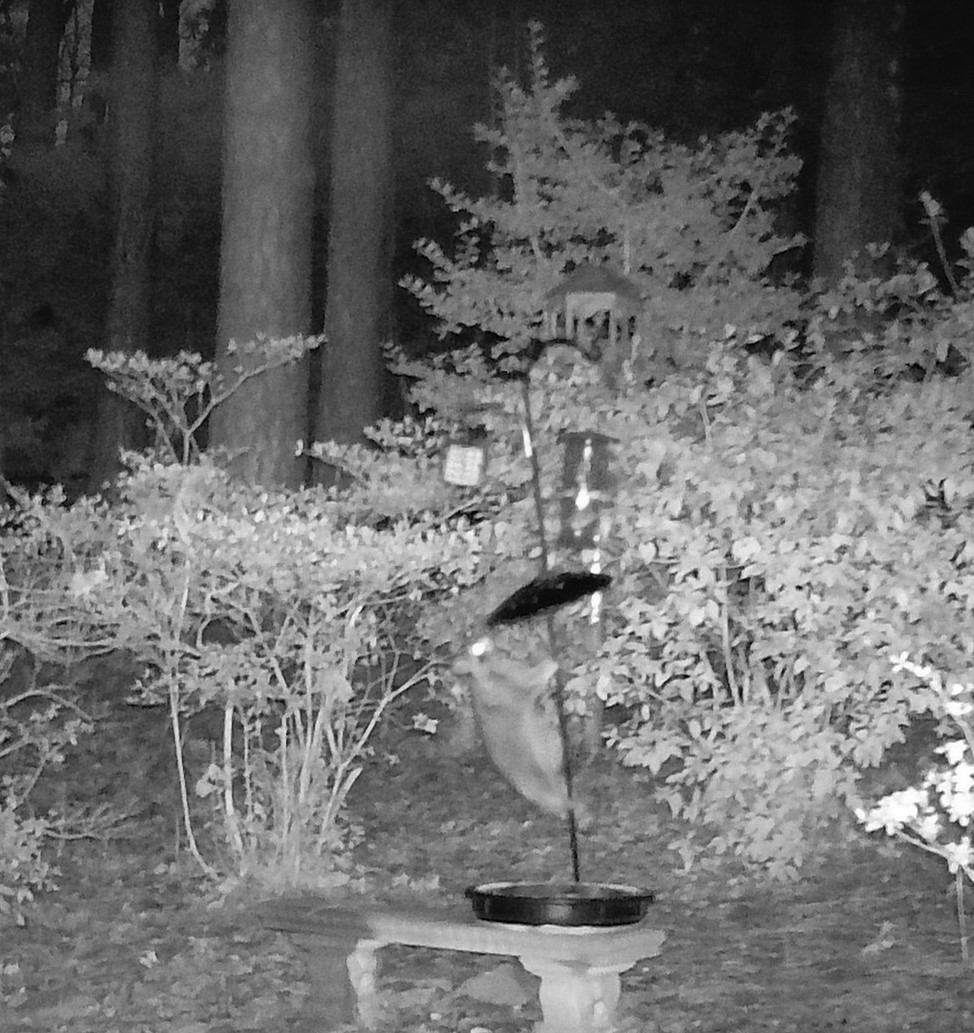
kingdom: Animalia
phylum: Chordata
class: Mammalia
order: Carnivora
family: Procyonidae
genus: Procyon
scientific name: Procyon lotor
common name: Raccoon
